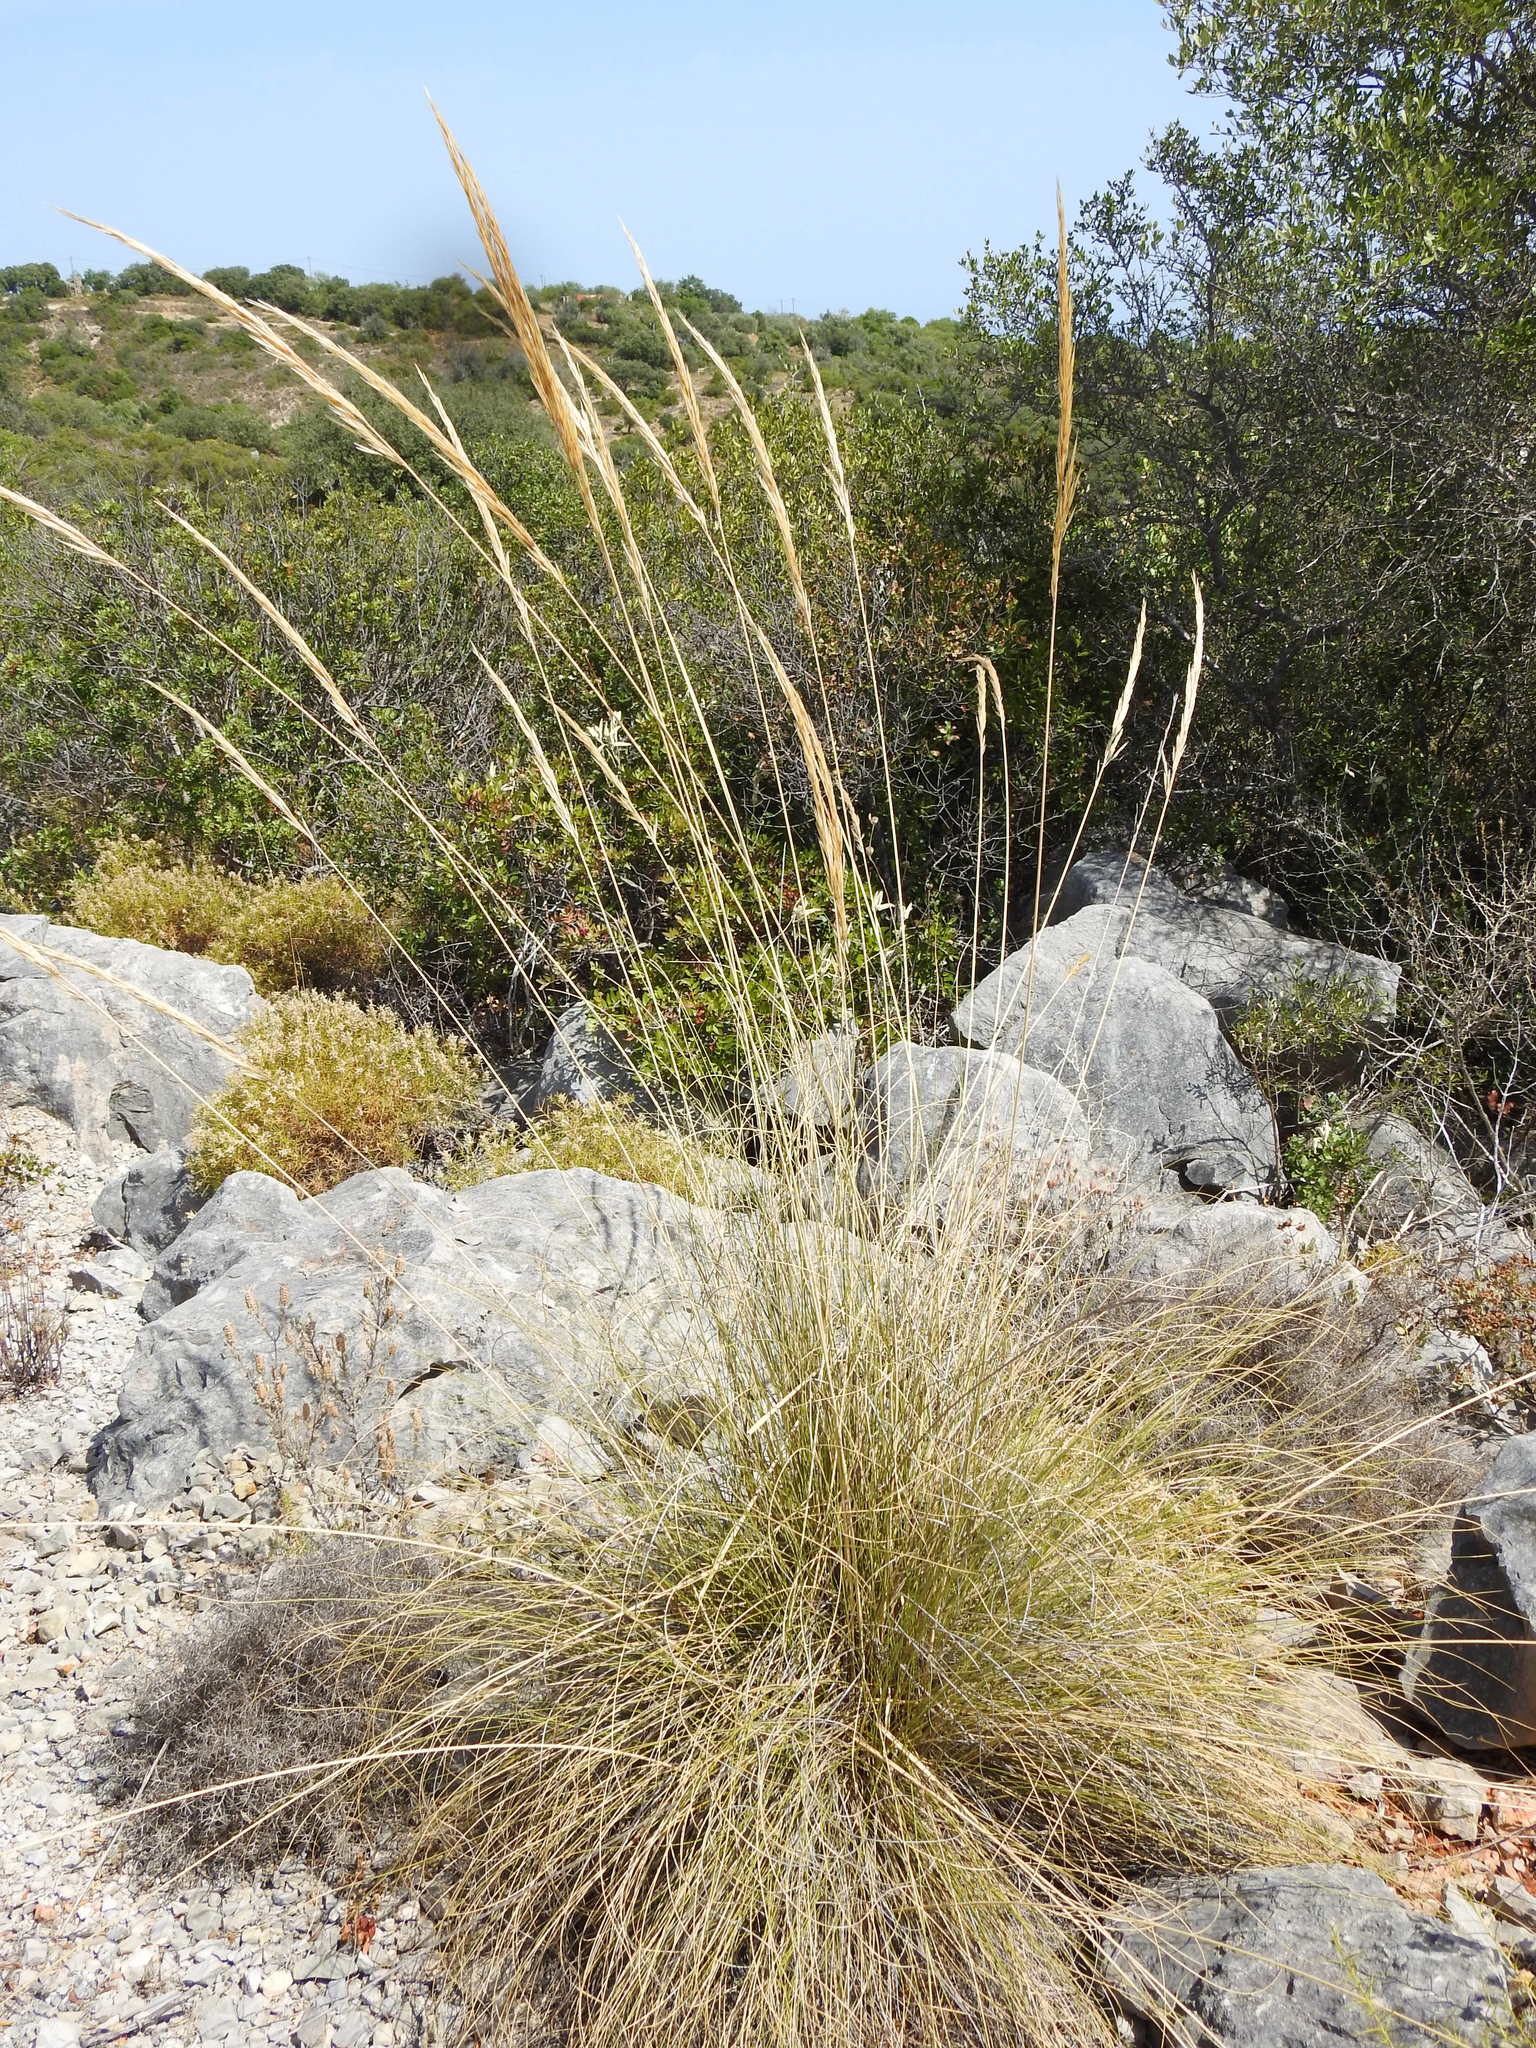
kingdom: Plantae
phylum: Tracheophyta
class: Liliopsida
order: Poales
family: Poaceae
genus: Macrochloa
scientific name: Macrochloa tenacissima
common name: Alfa grass
